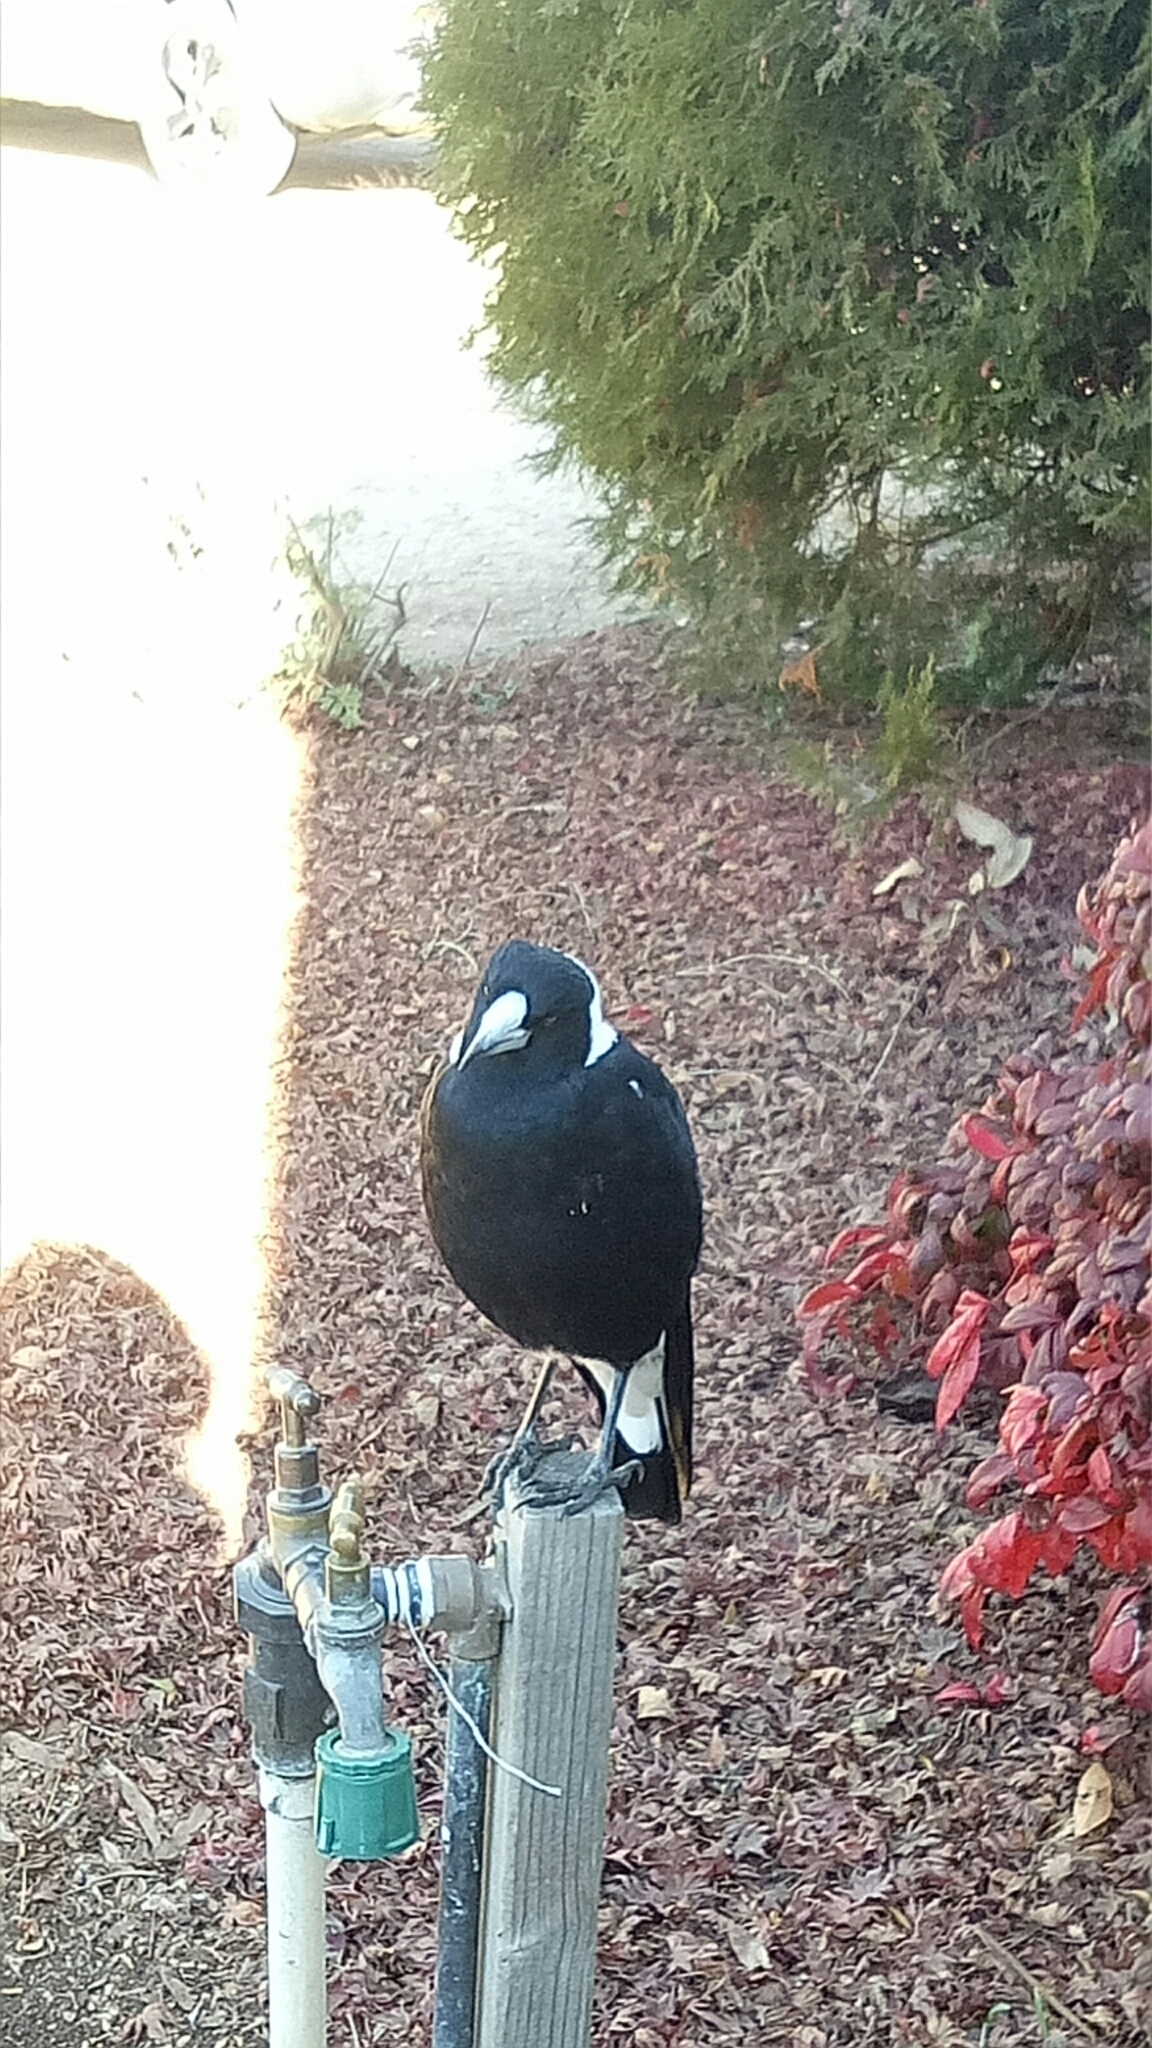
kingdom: Animalia
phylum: Chordata
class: Aves
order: Passeriformes
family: Cracticidae
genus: Gymnorhina
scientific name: Gymnorhina tibicen
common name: Australian magpie
